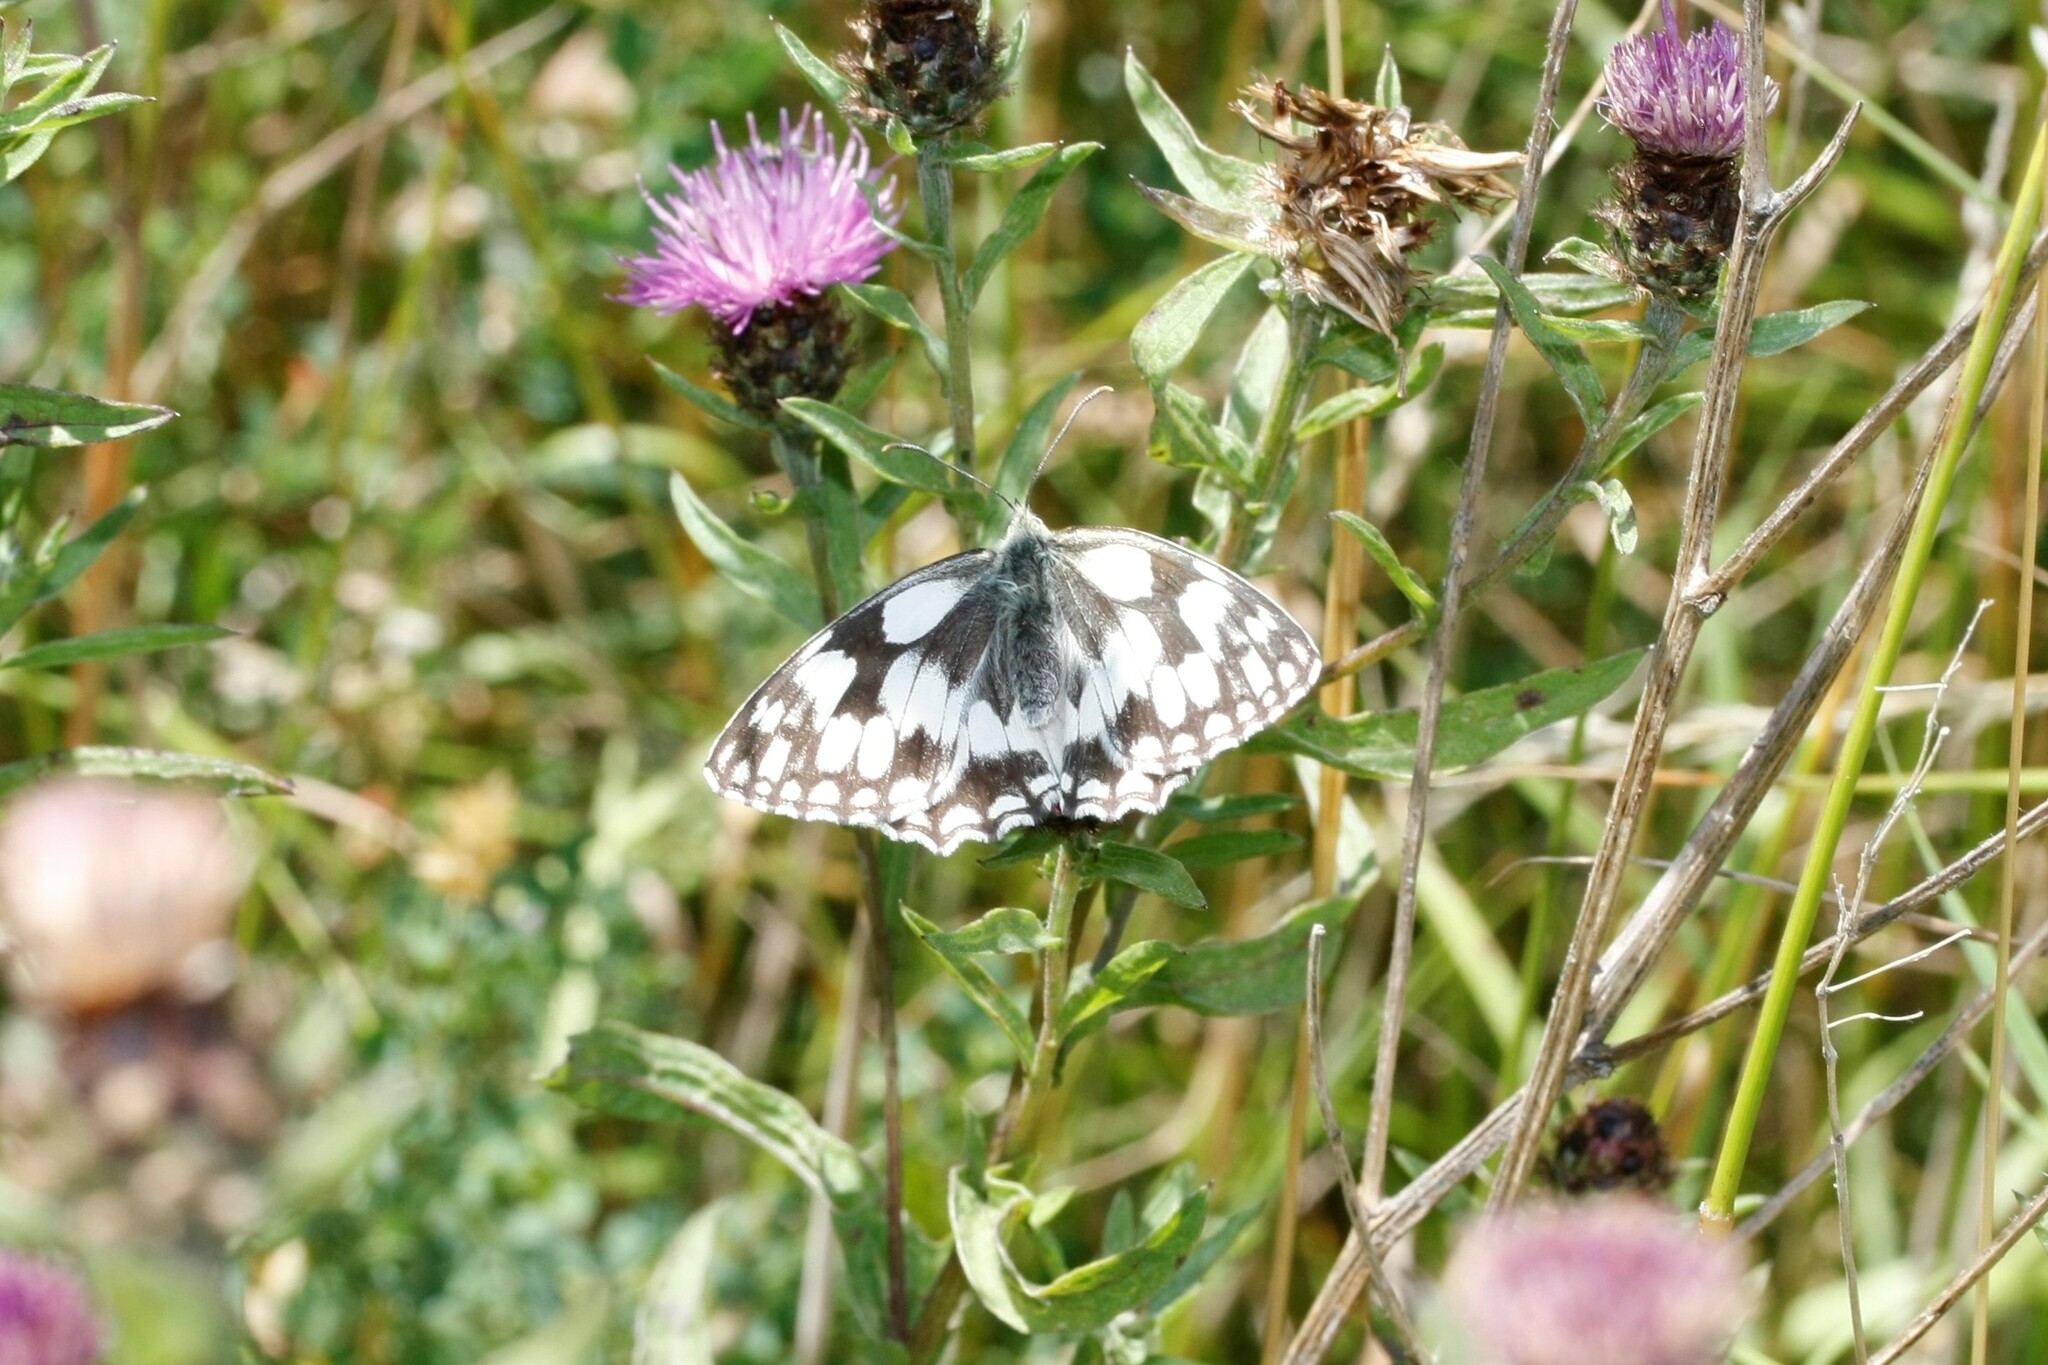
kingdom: Animalia
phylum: Arthropoda
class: Insecta
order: Lepidoptera
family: Nymphalidae
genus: Melanargia
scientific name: Melanargia galathea
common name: Marbled white
